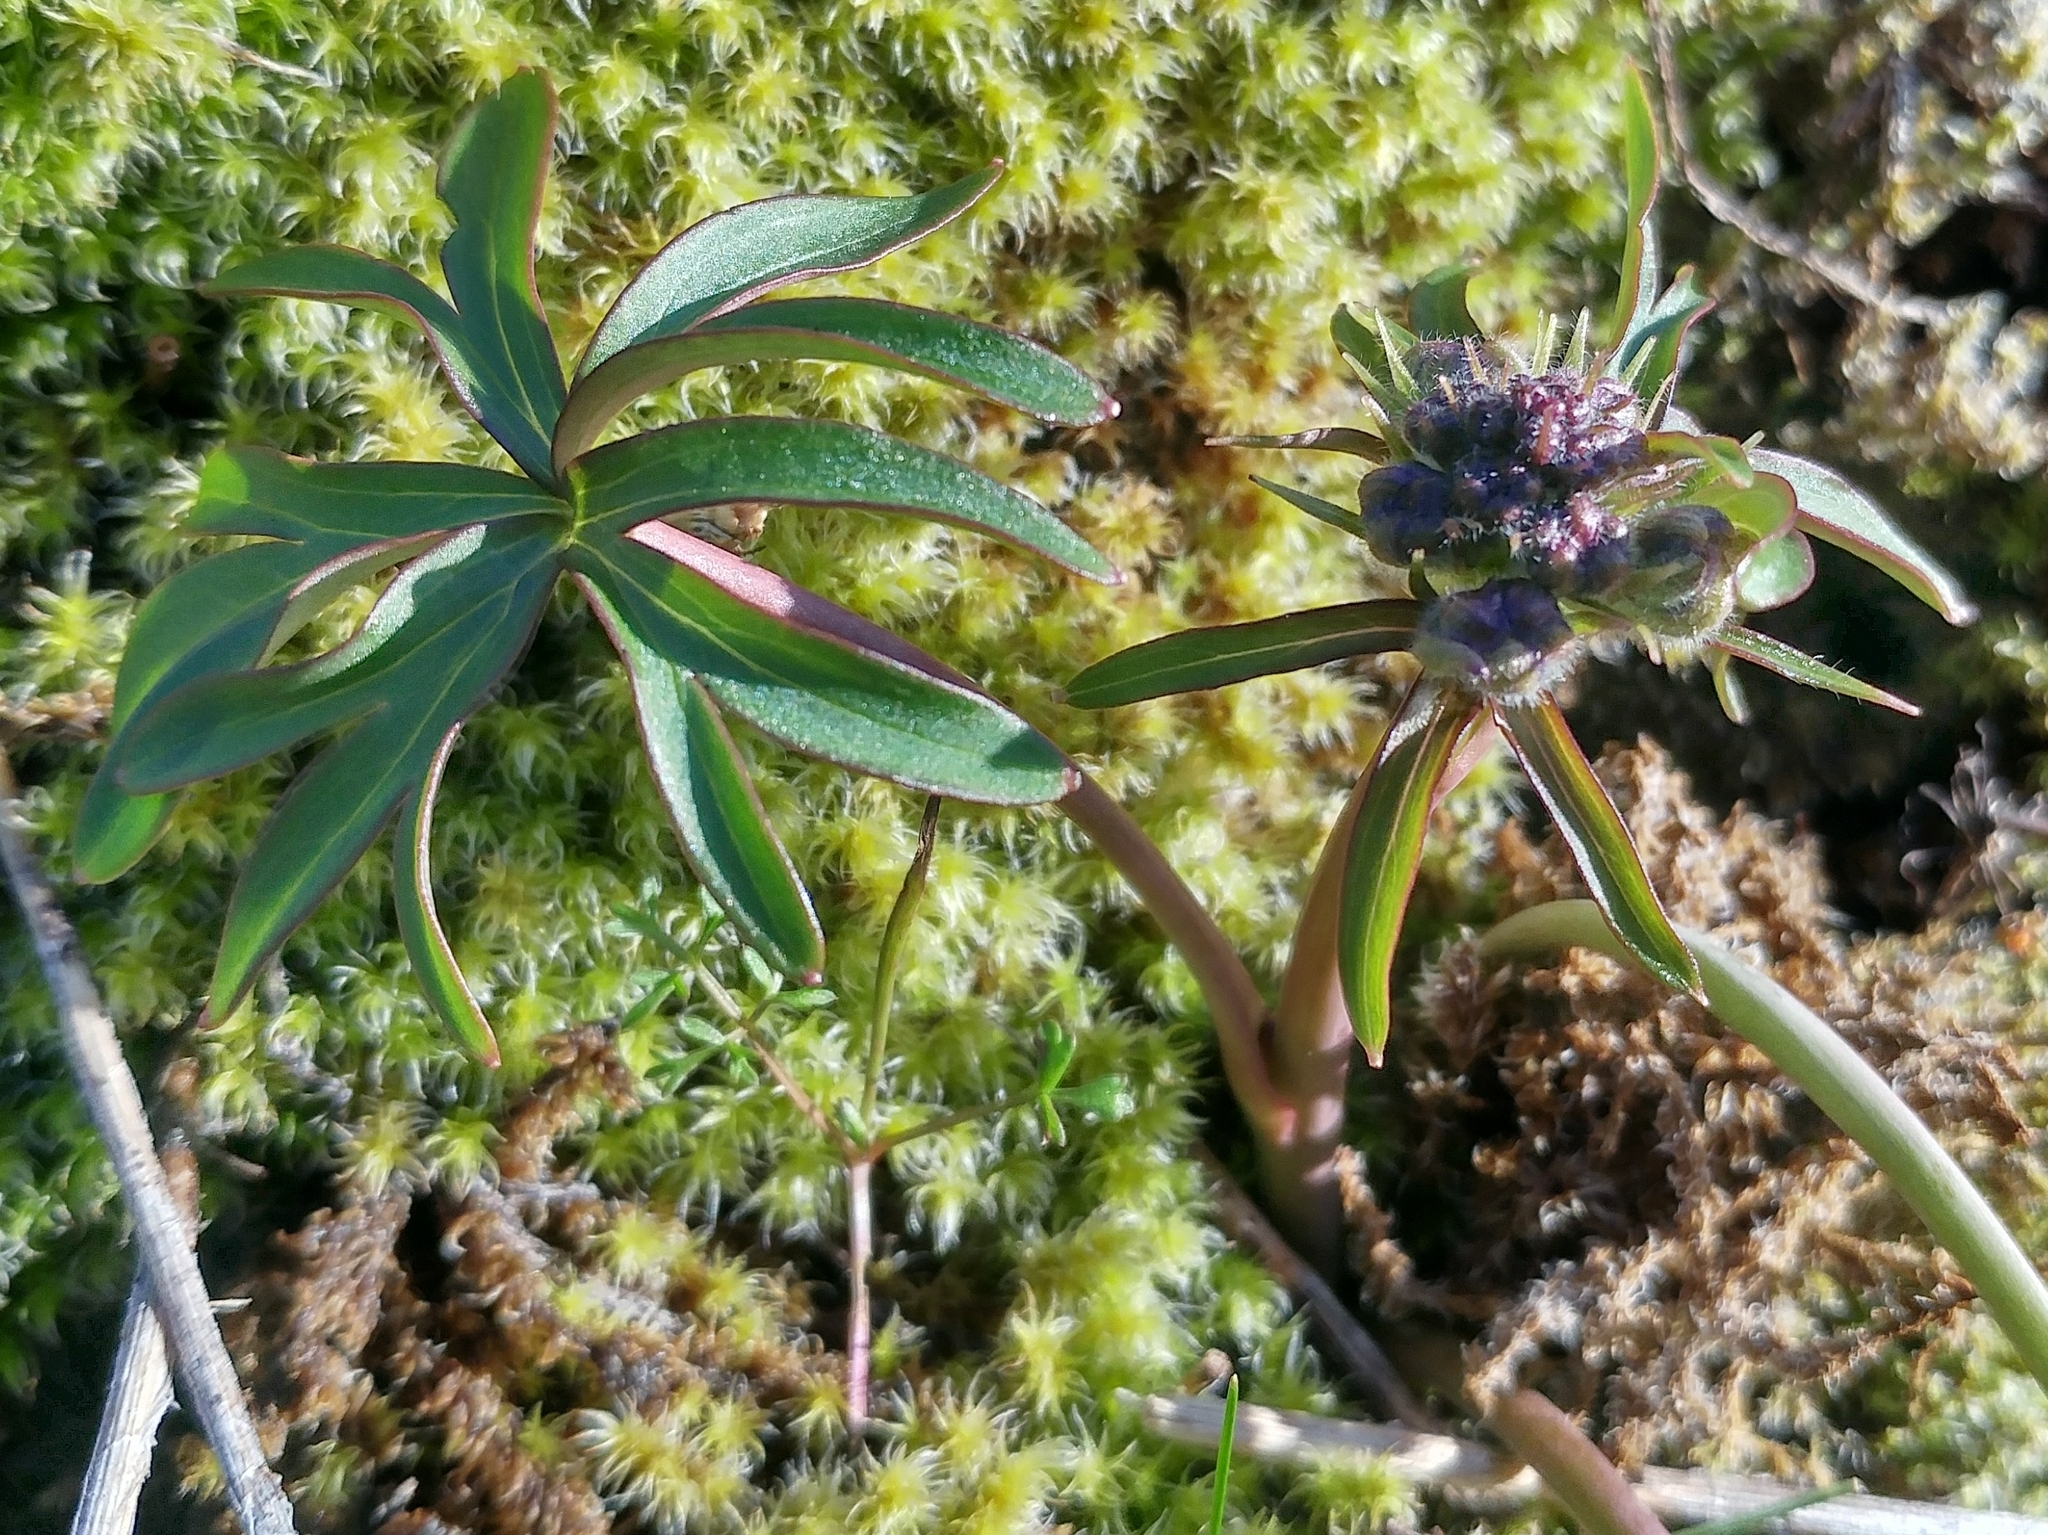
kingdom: Plantae
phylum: Tracheophyta
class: Magnoliopsida
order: Ranunculales
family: Ranunculaceae
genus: Delphinium
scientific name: Delphinium nuttallianum
